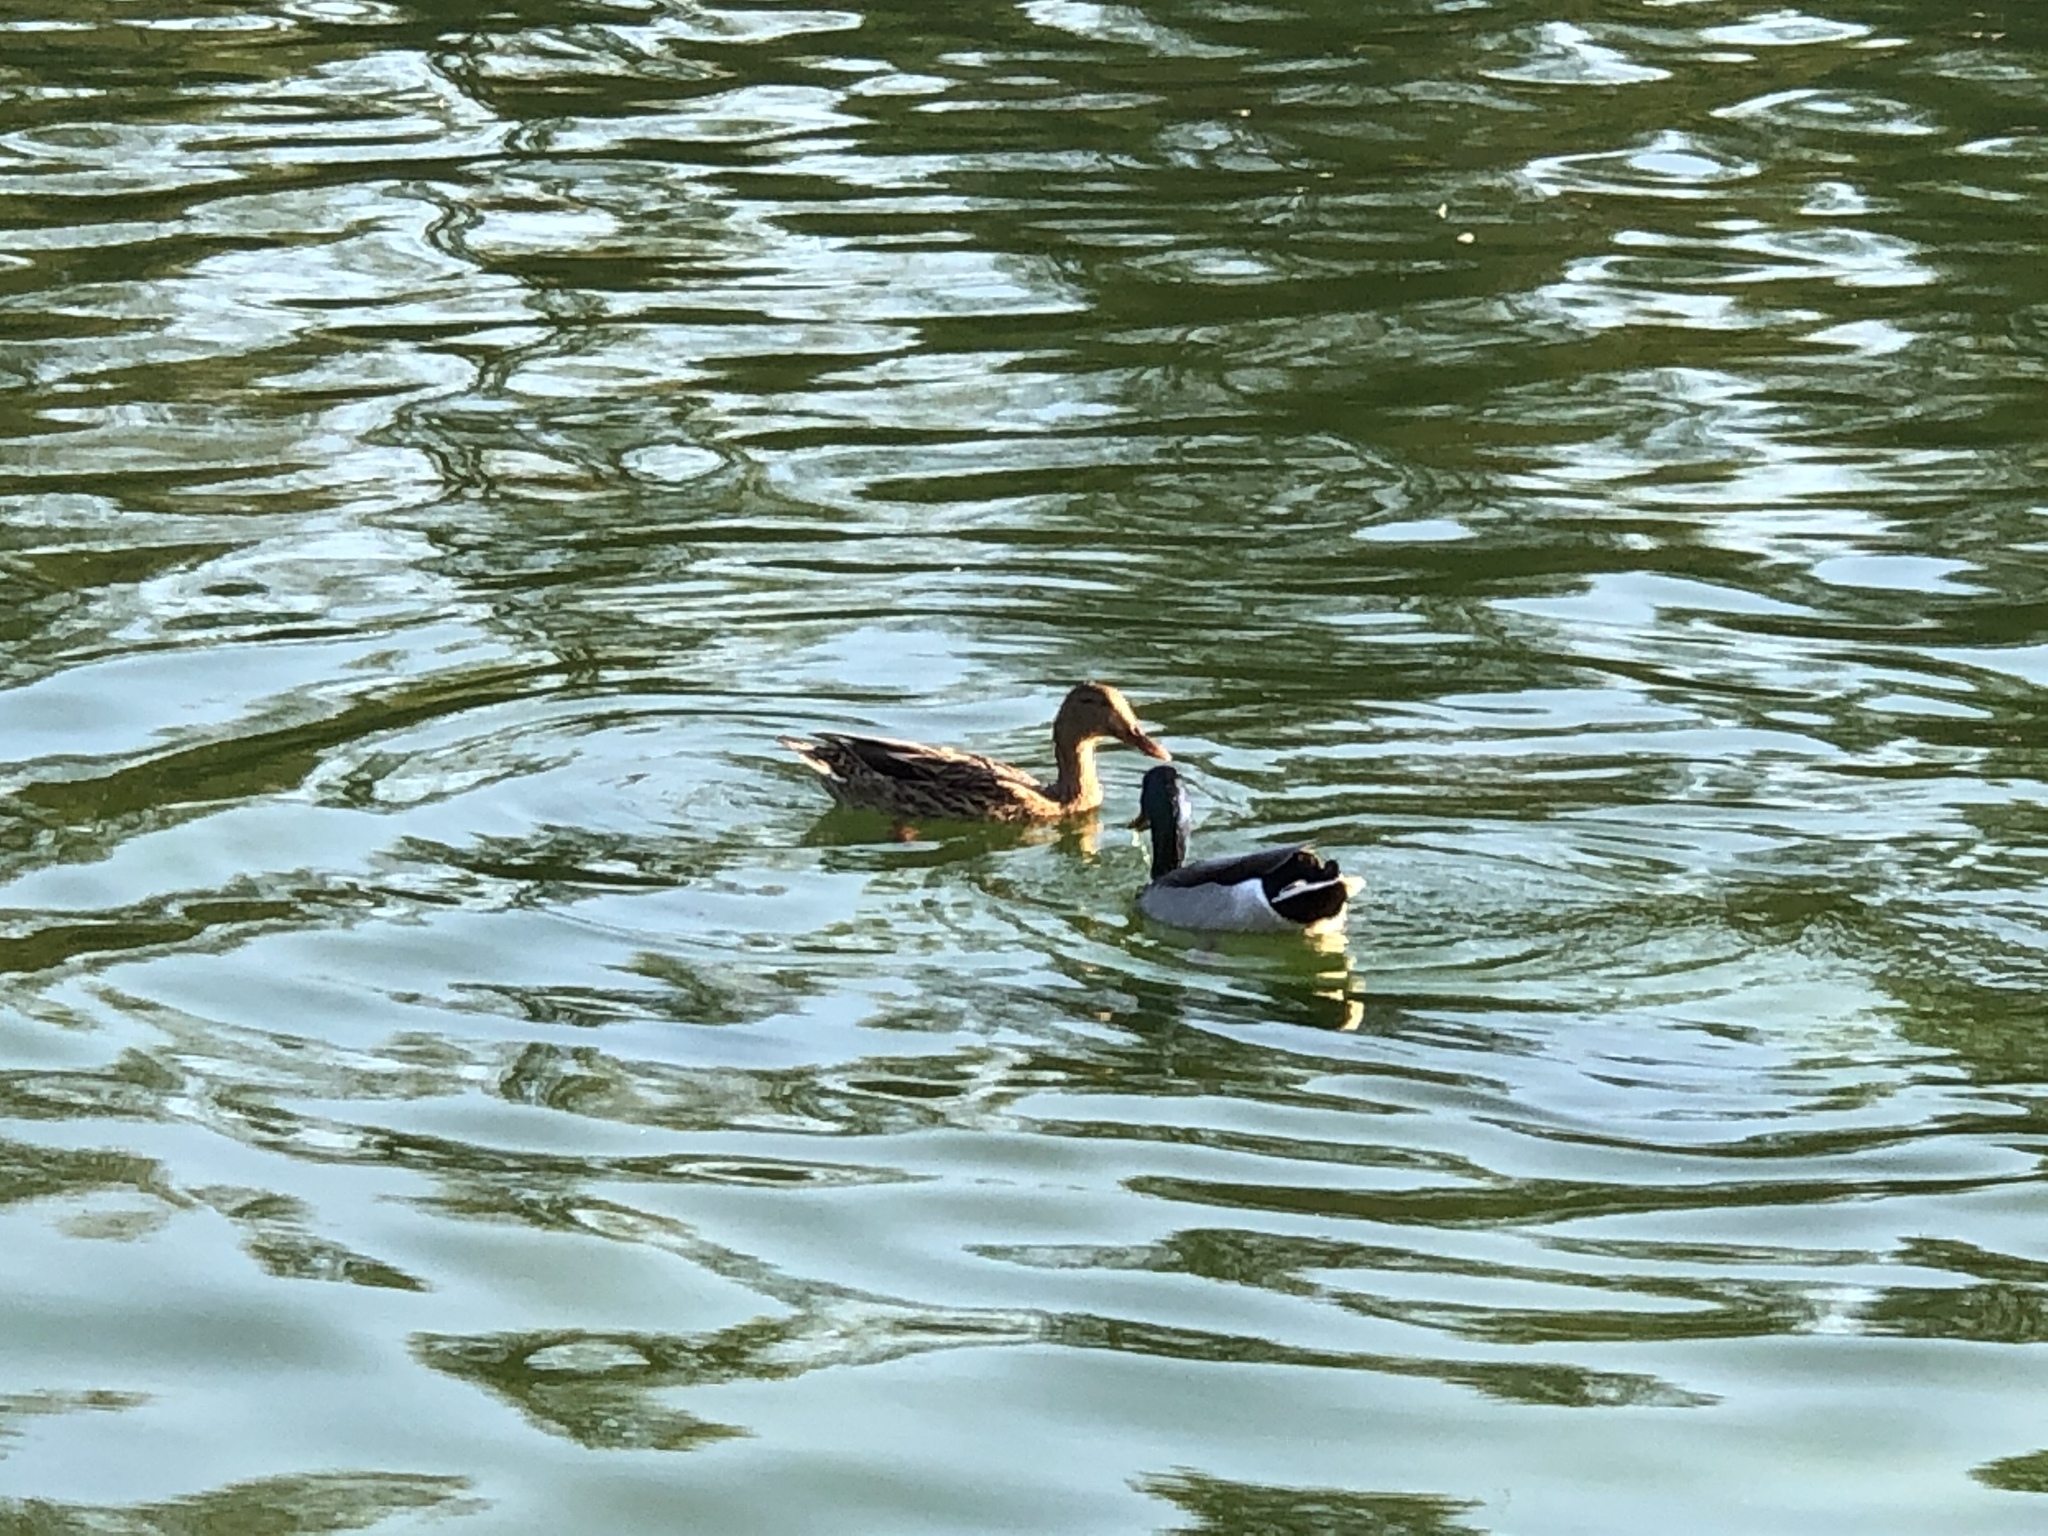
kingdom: Animalia
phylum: Chordata
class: Aves
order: Anseriformes
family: Anatidae
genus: Anas
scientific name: Anas platyrhynchos
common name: Mallard
